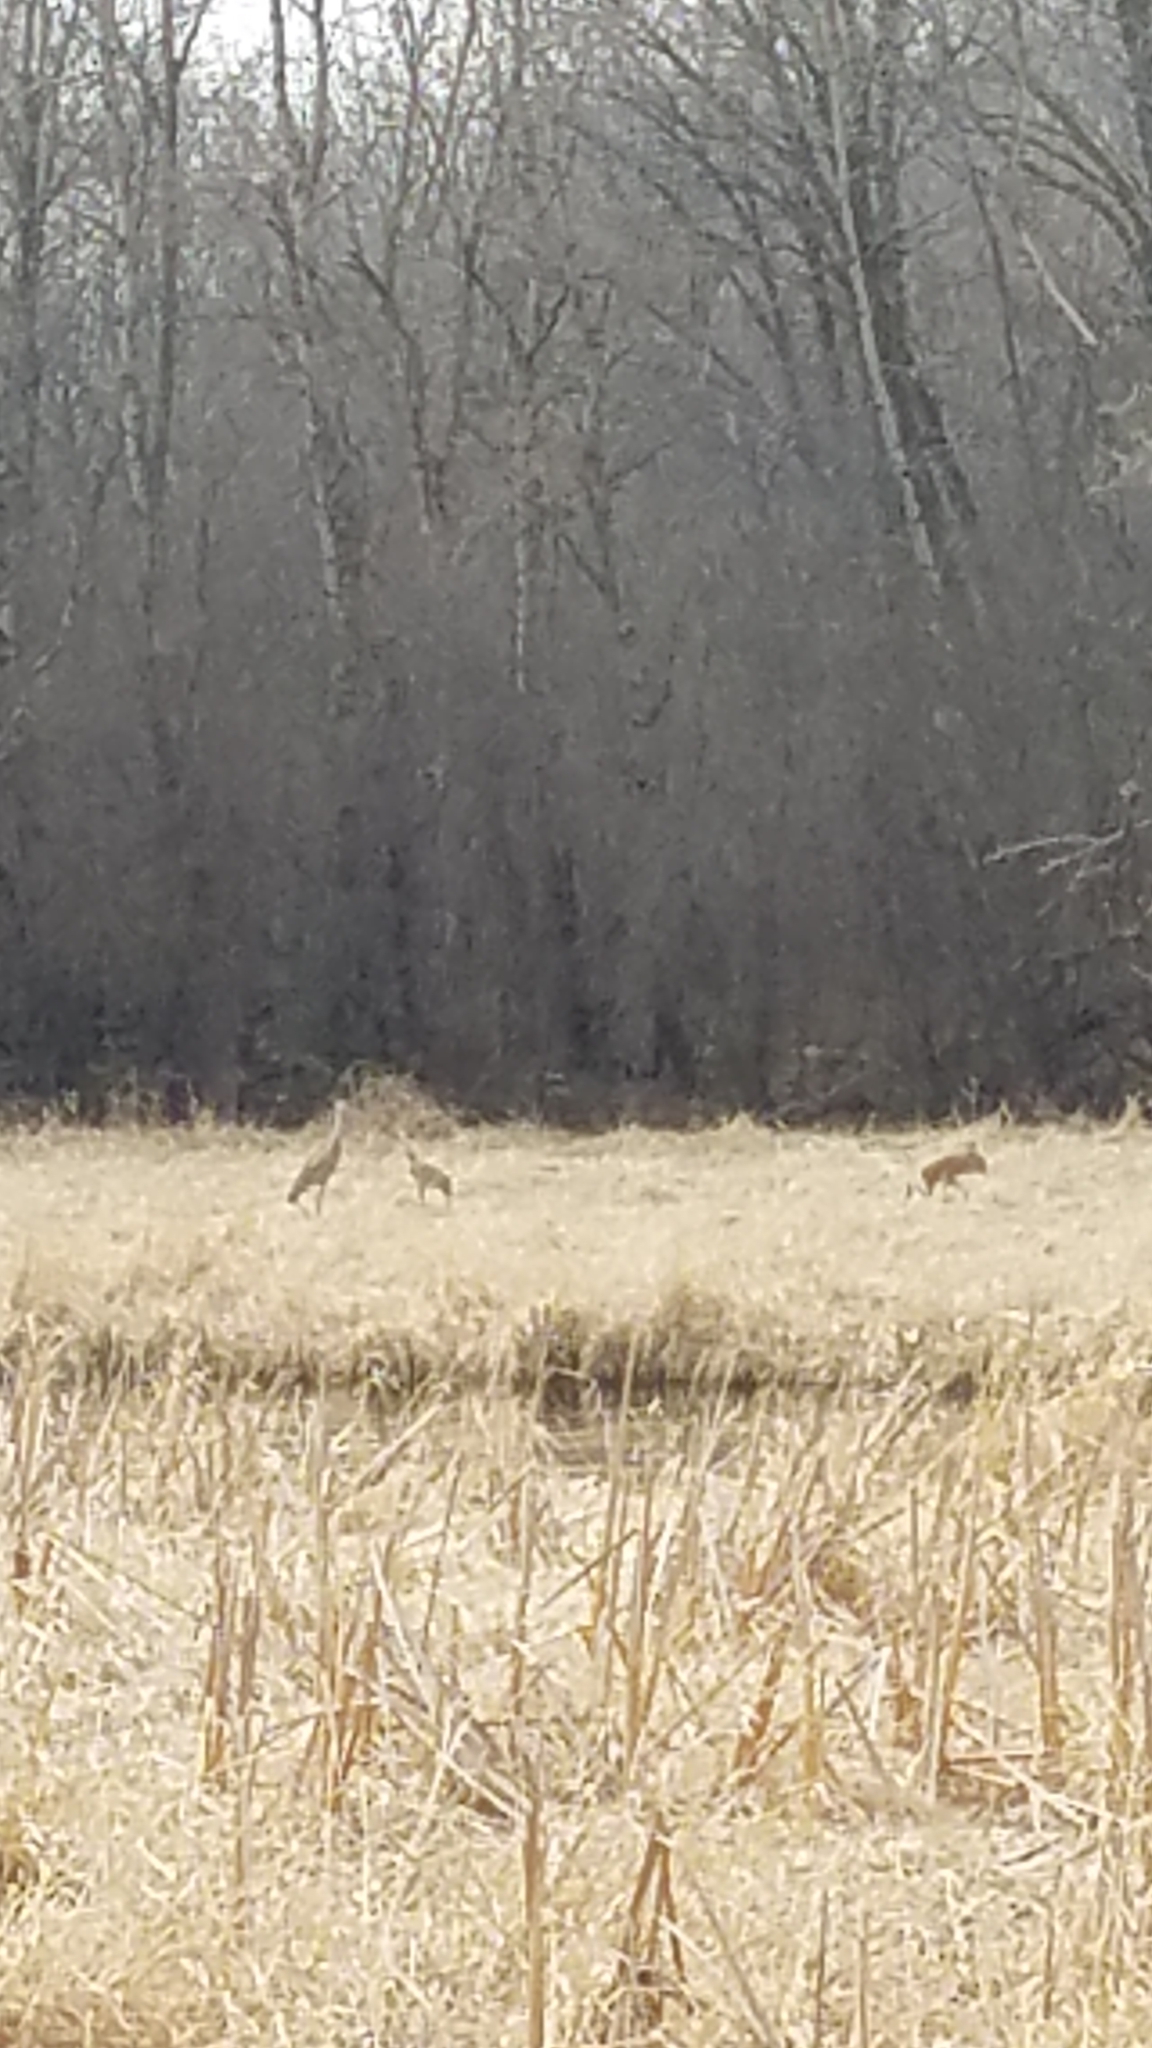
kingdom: Animalia
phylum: Chordata
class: Aves
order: Gruiformes
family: Gruidae
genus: Grus
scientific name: Grus canadensis
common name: Sandhill crane
